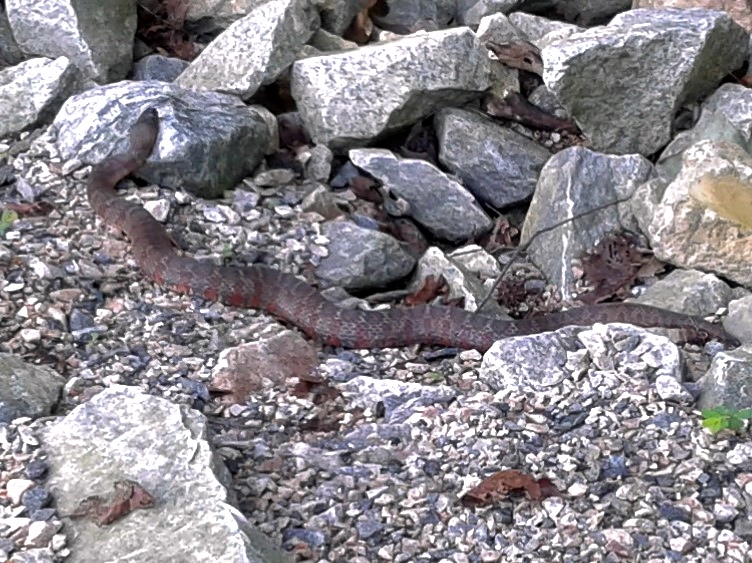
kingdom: Animalia
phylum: Chordata
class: Squamata
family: Colubridae
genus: Nerodia
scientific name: Nerodia sipedon
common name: Northern water snake
